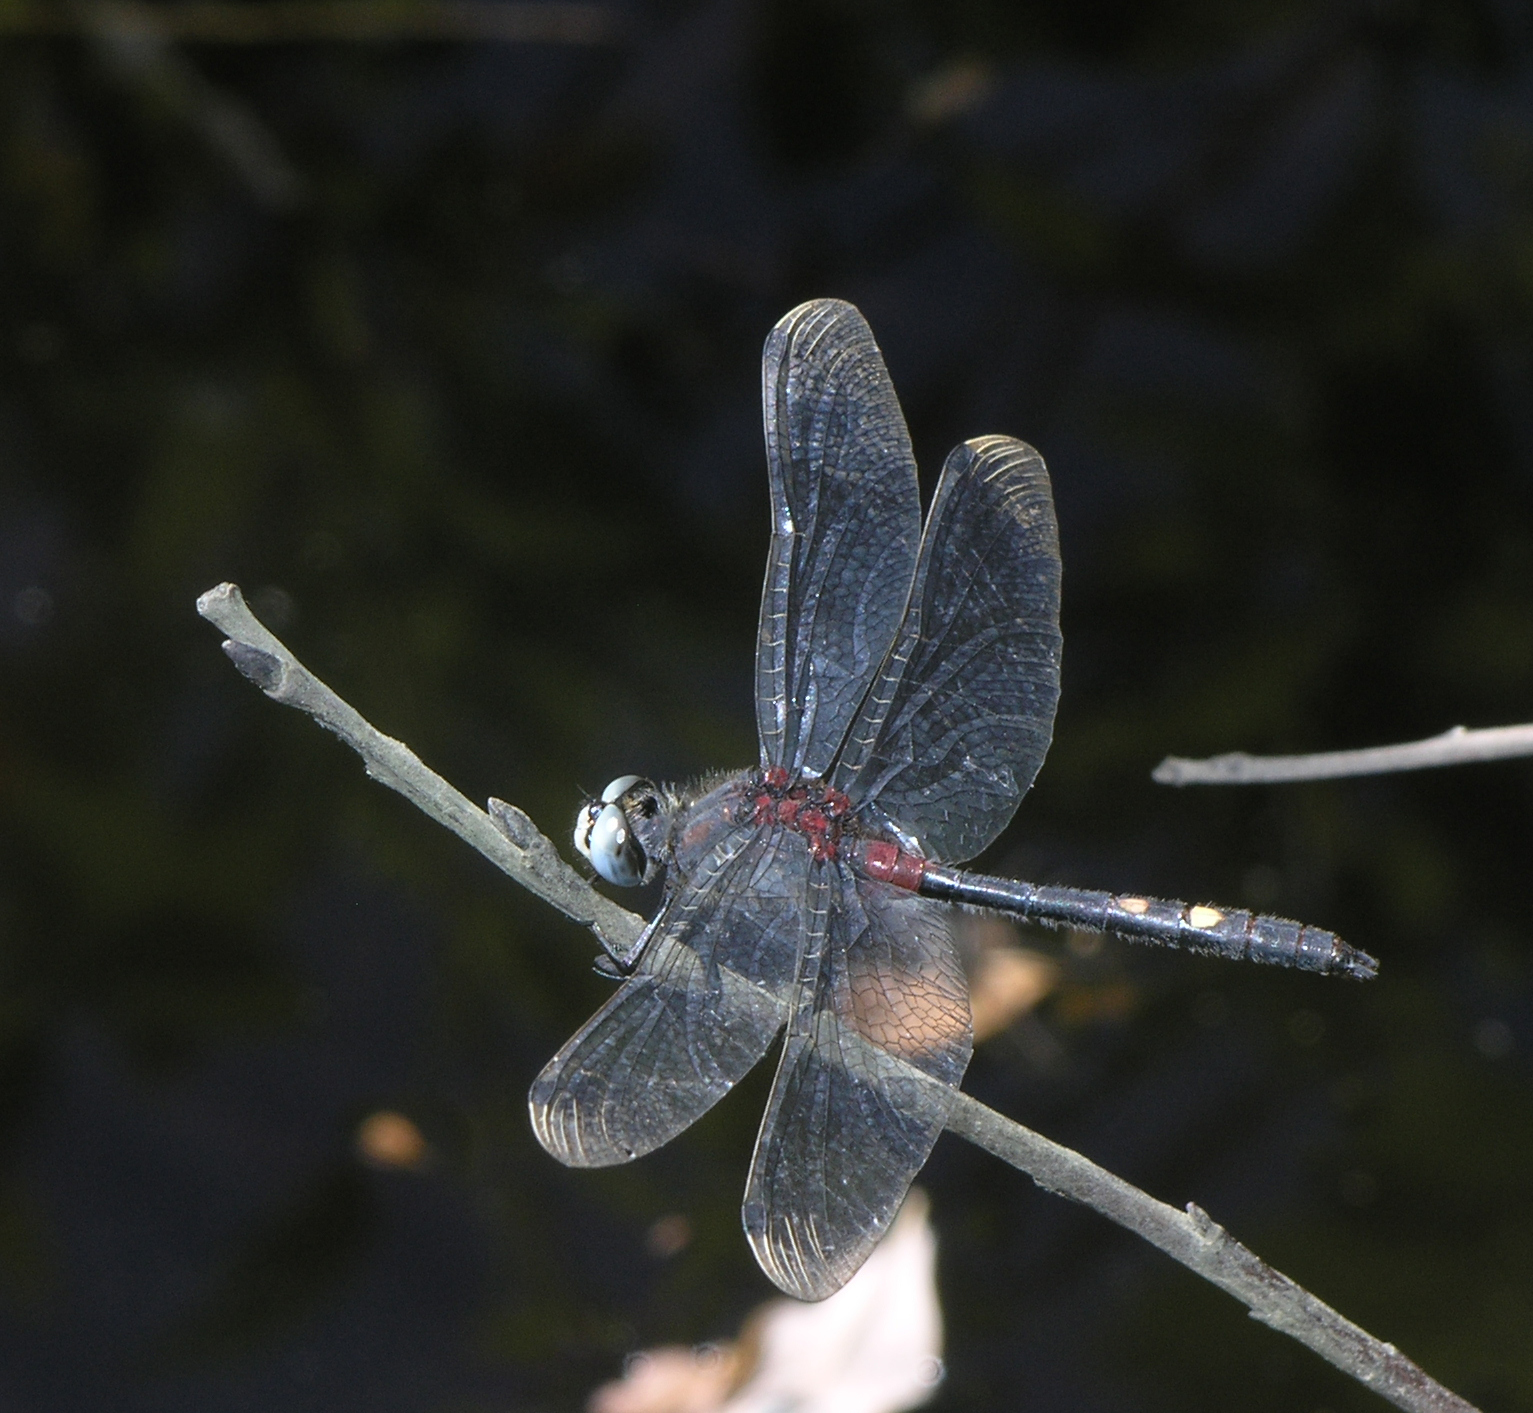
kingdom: Animalia
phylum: Arthropoda
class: Insecta
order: Odonata
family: Libellulidae
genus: Leucorrhinia
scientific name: Leucorrhinia orientalis
